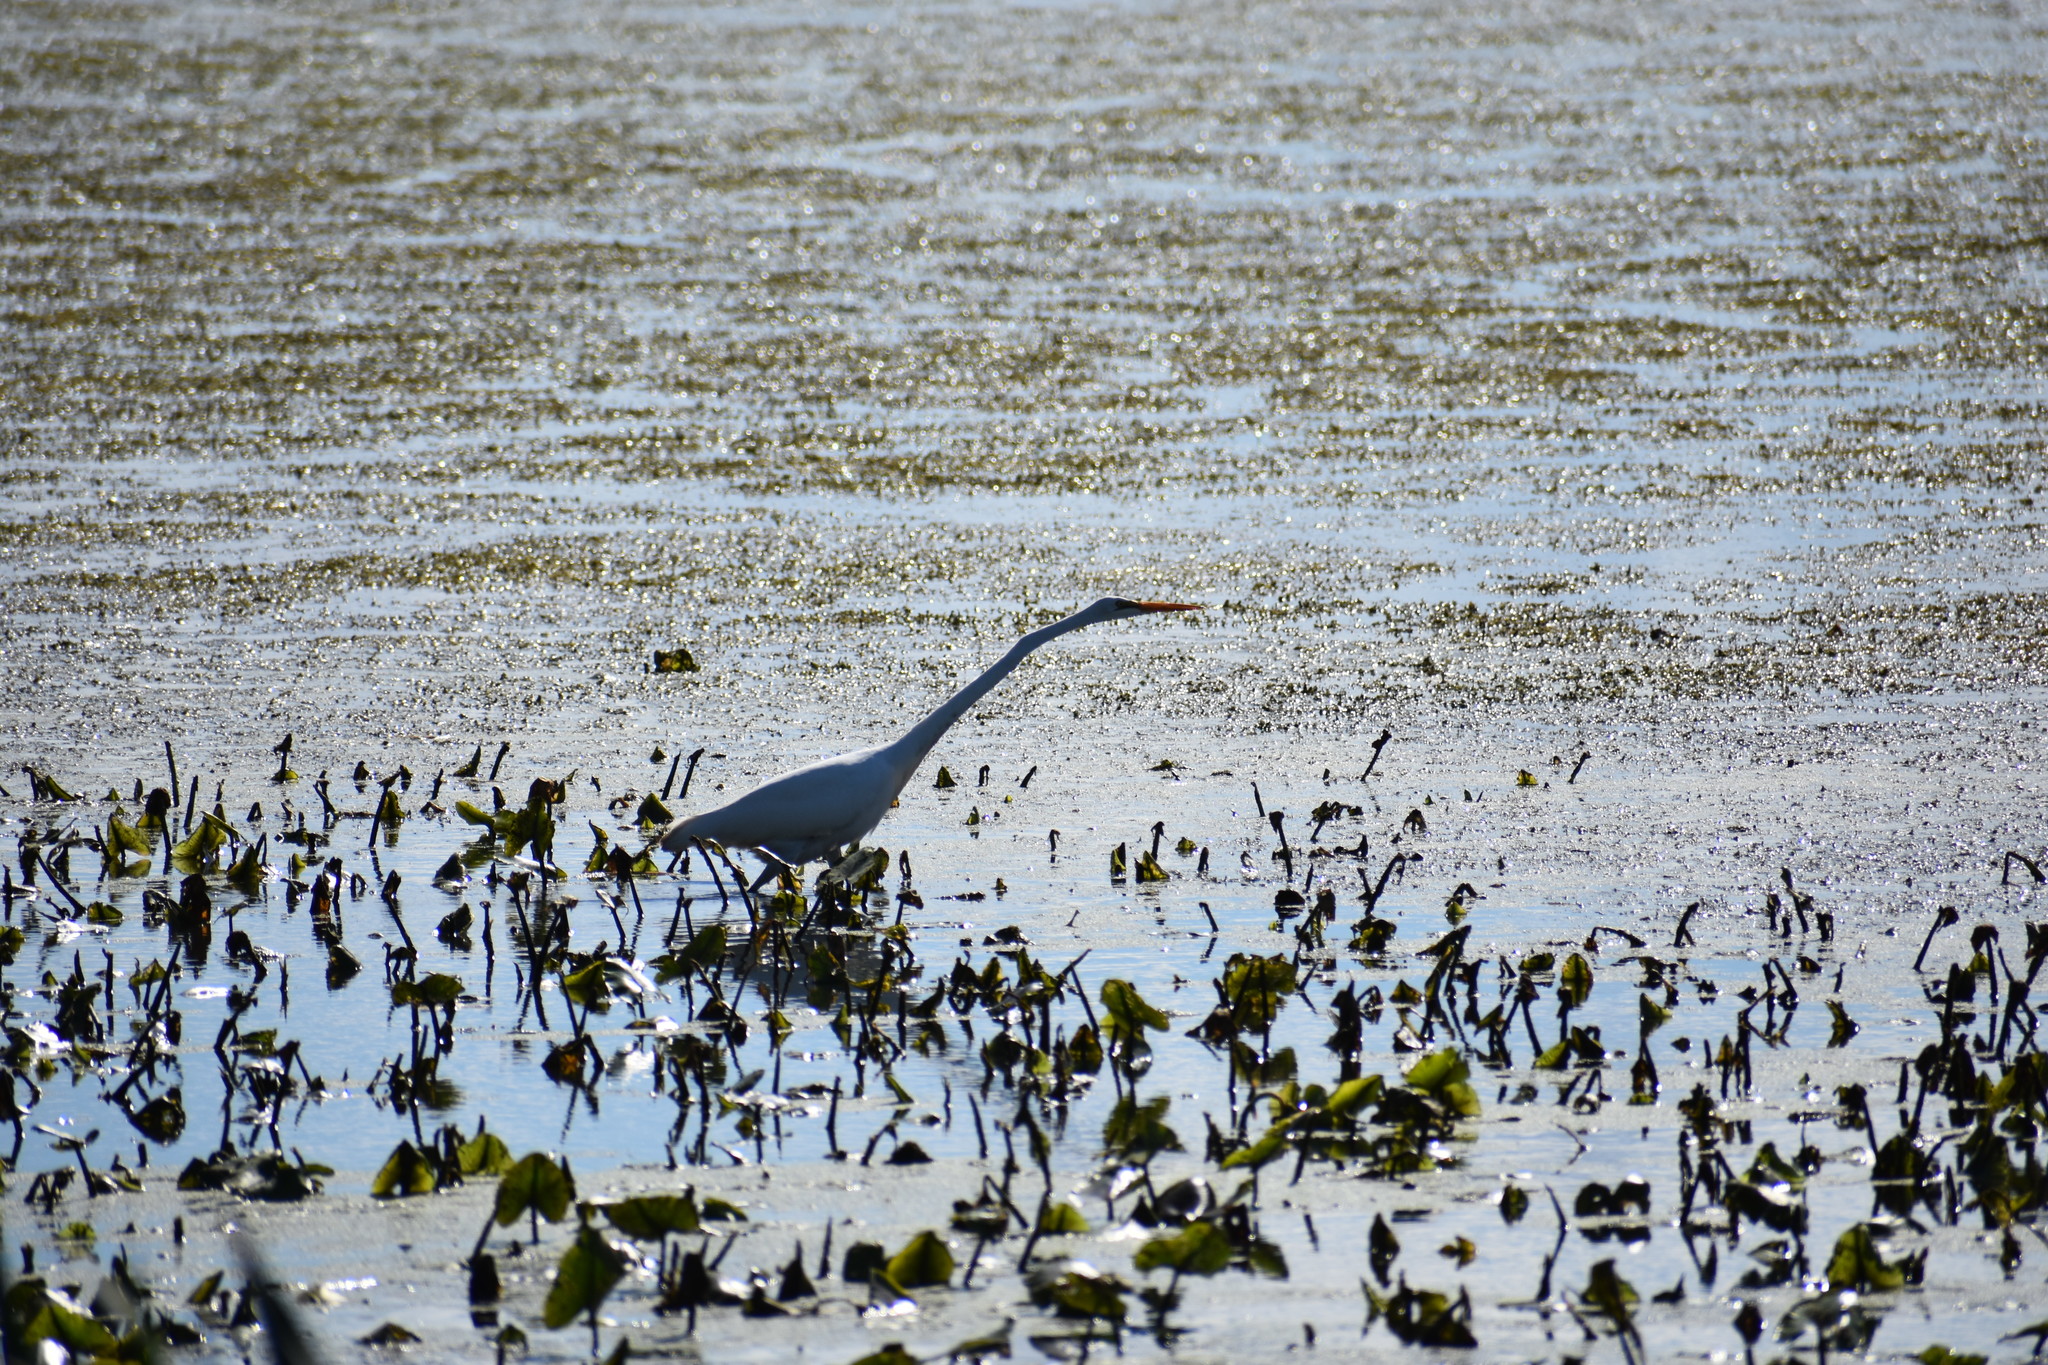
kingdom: Animalia
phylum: Chordata
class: Aves
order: Pelecaniformes
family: Ardeidae
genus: Ardea
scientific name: Ardea alba
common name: Great egret
